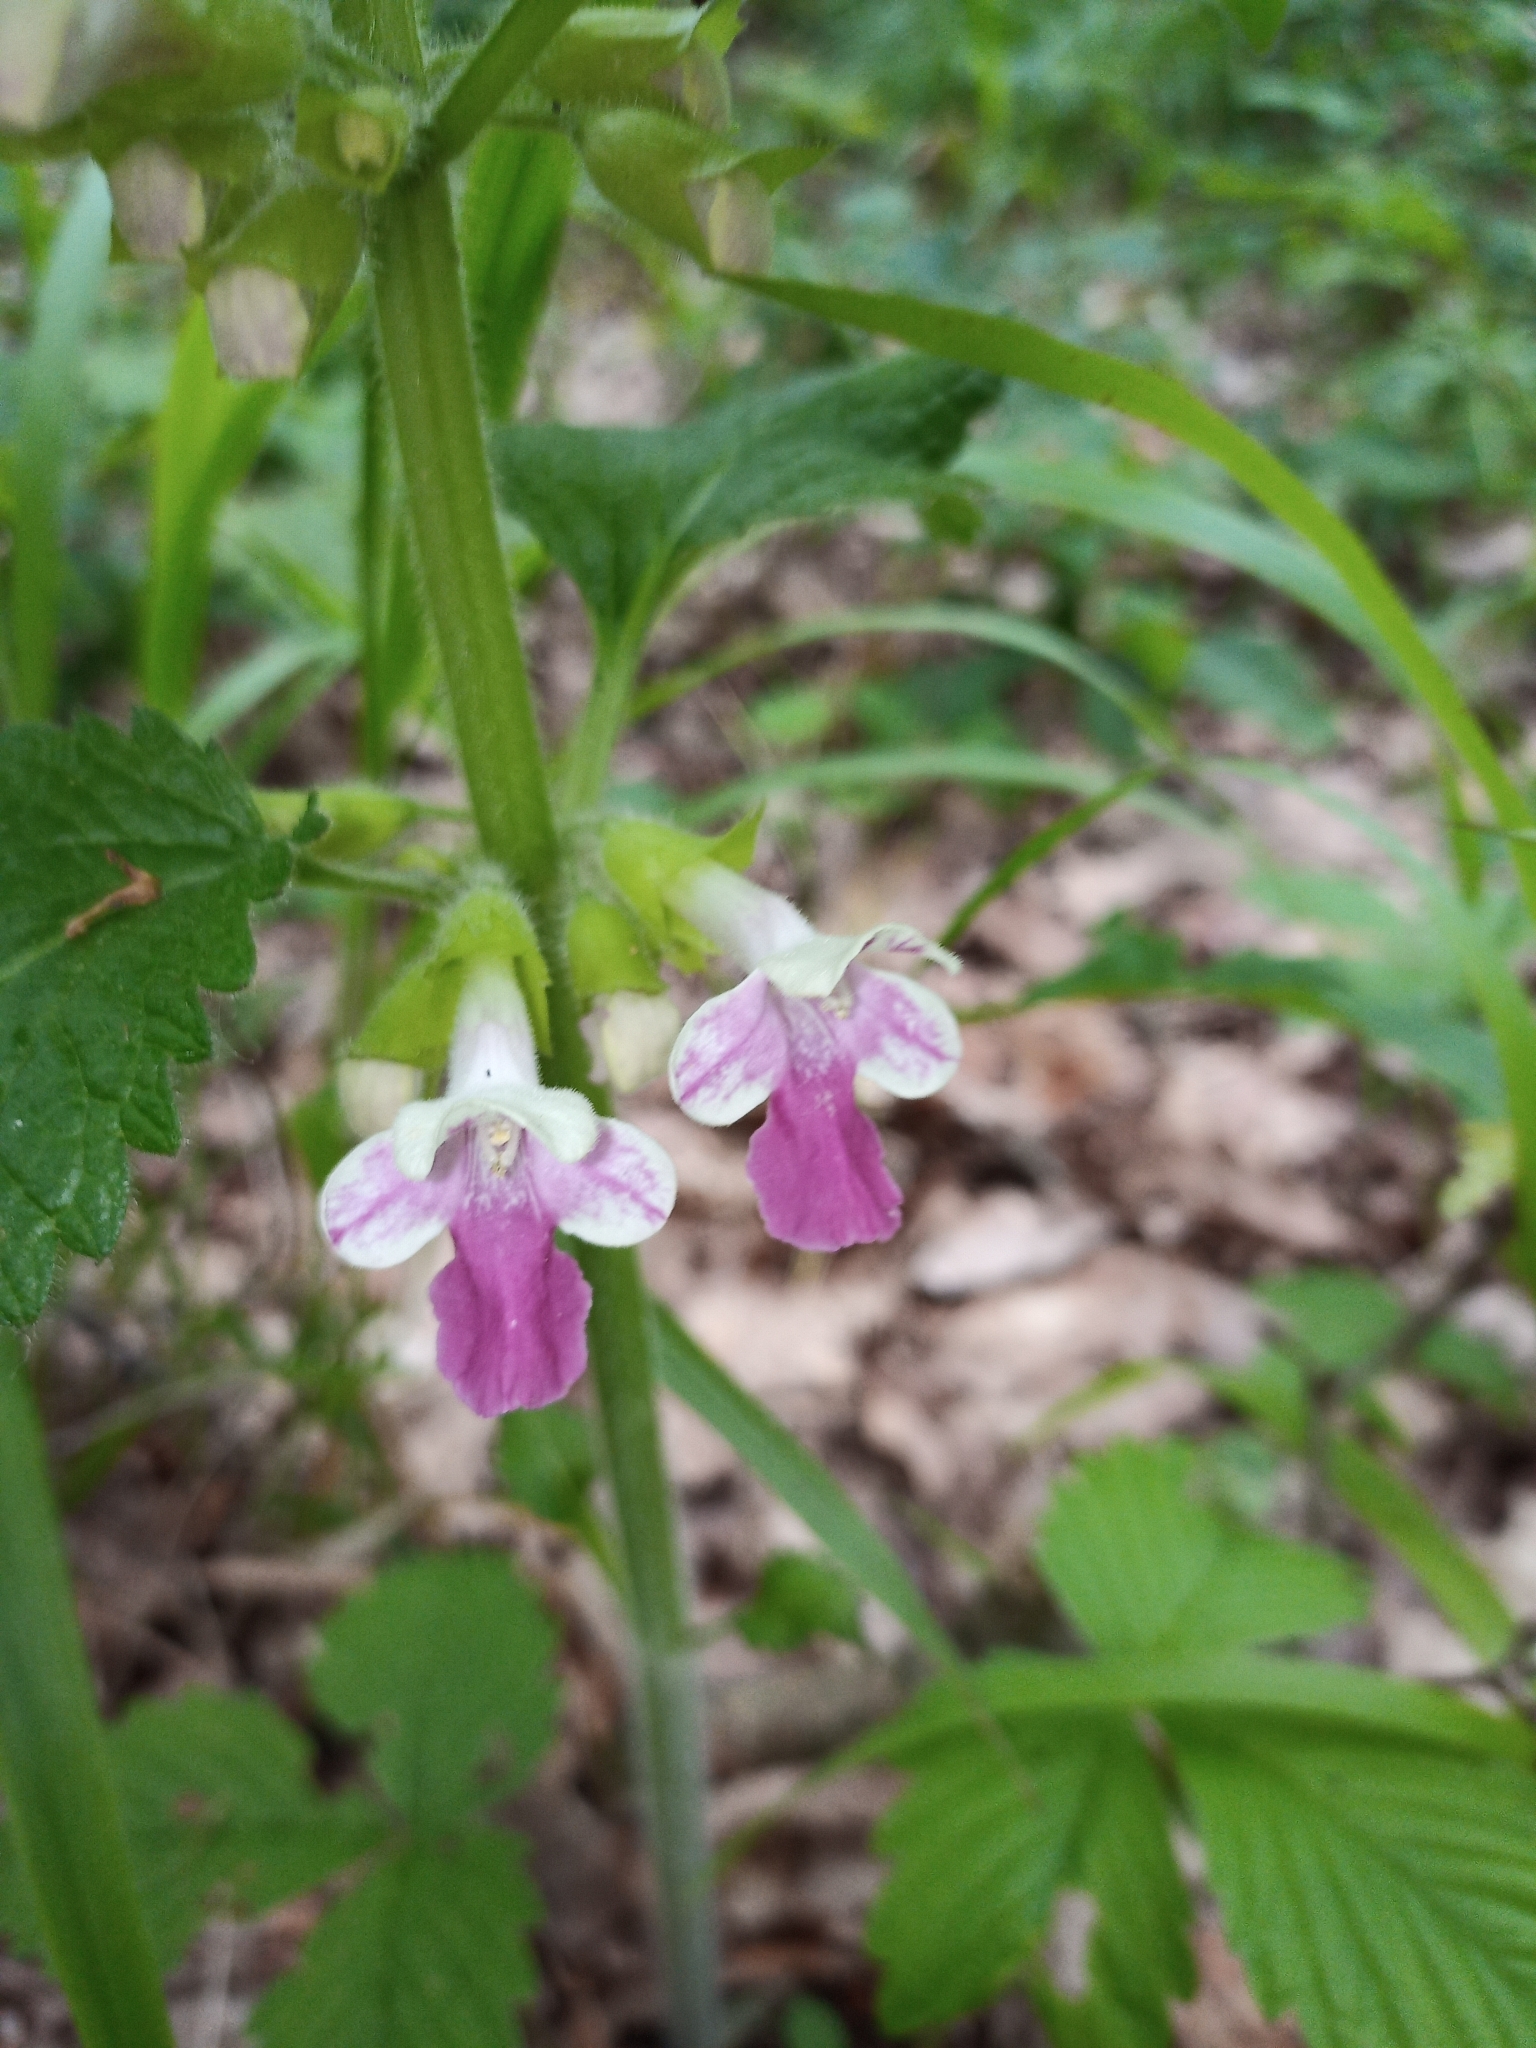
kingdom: Plantae
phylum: Tracheophyta
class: Magnoliopsida
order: Lamiales
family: Lamiaceae
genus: Melittis
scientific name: Melittis melissophyllum
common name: Bastard balm
